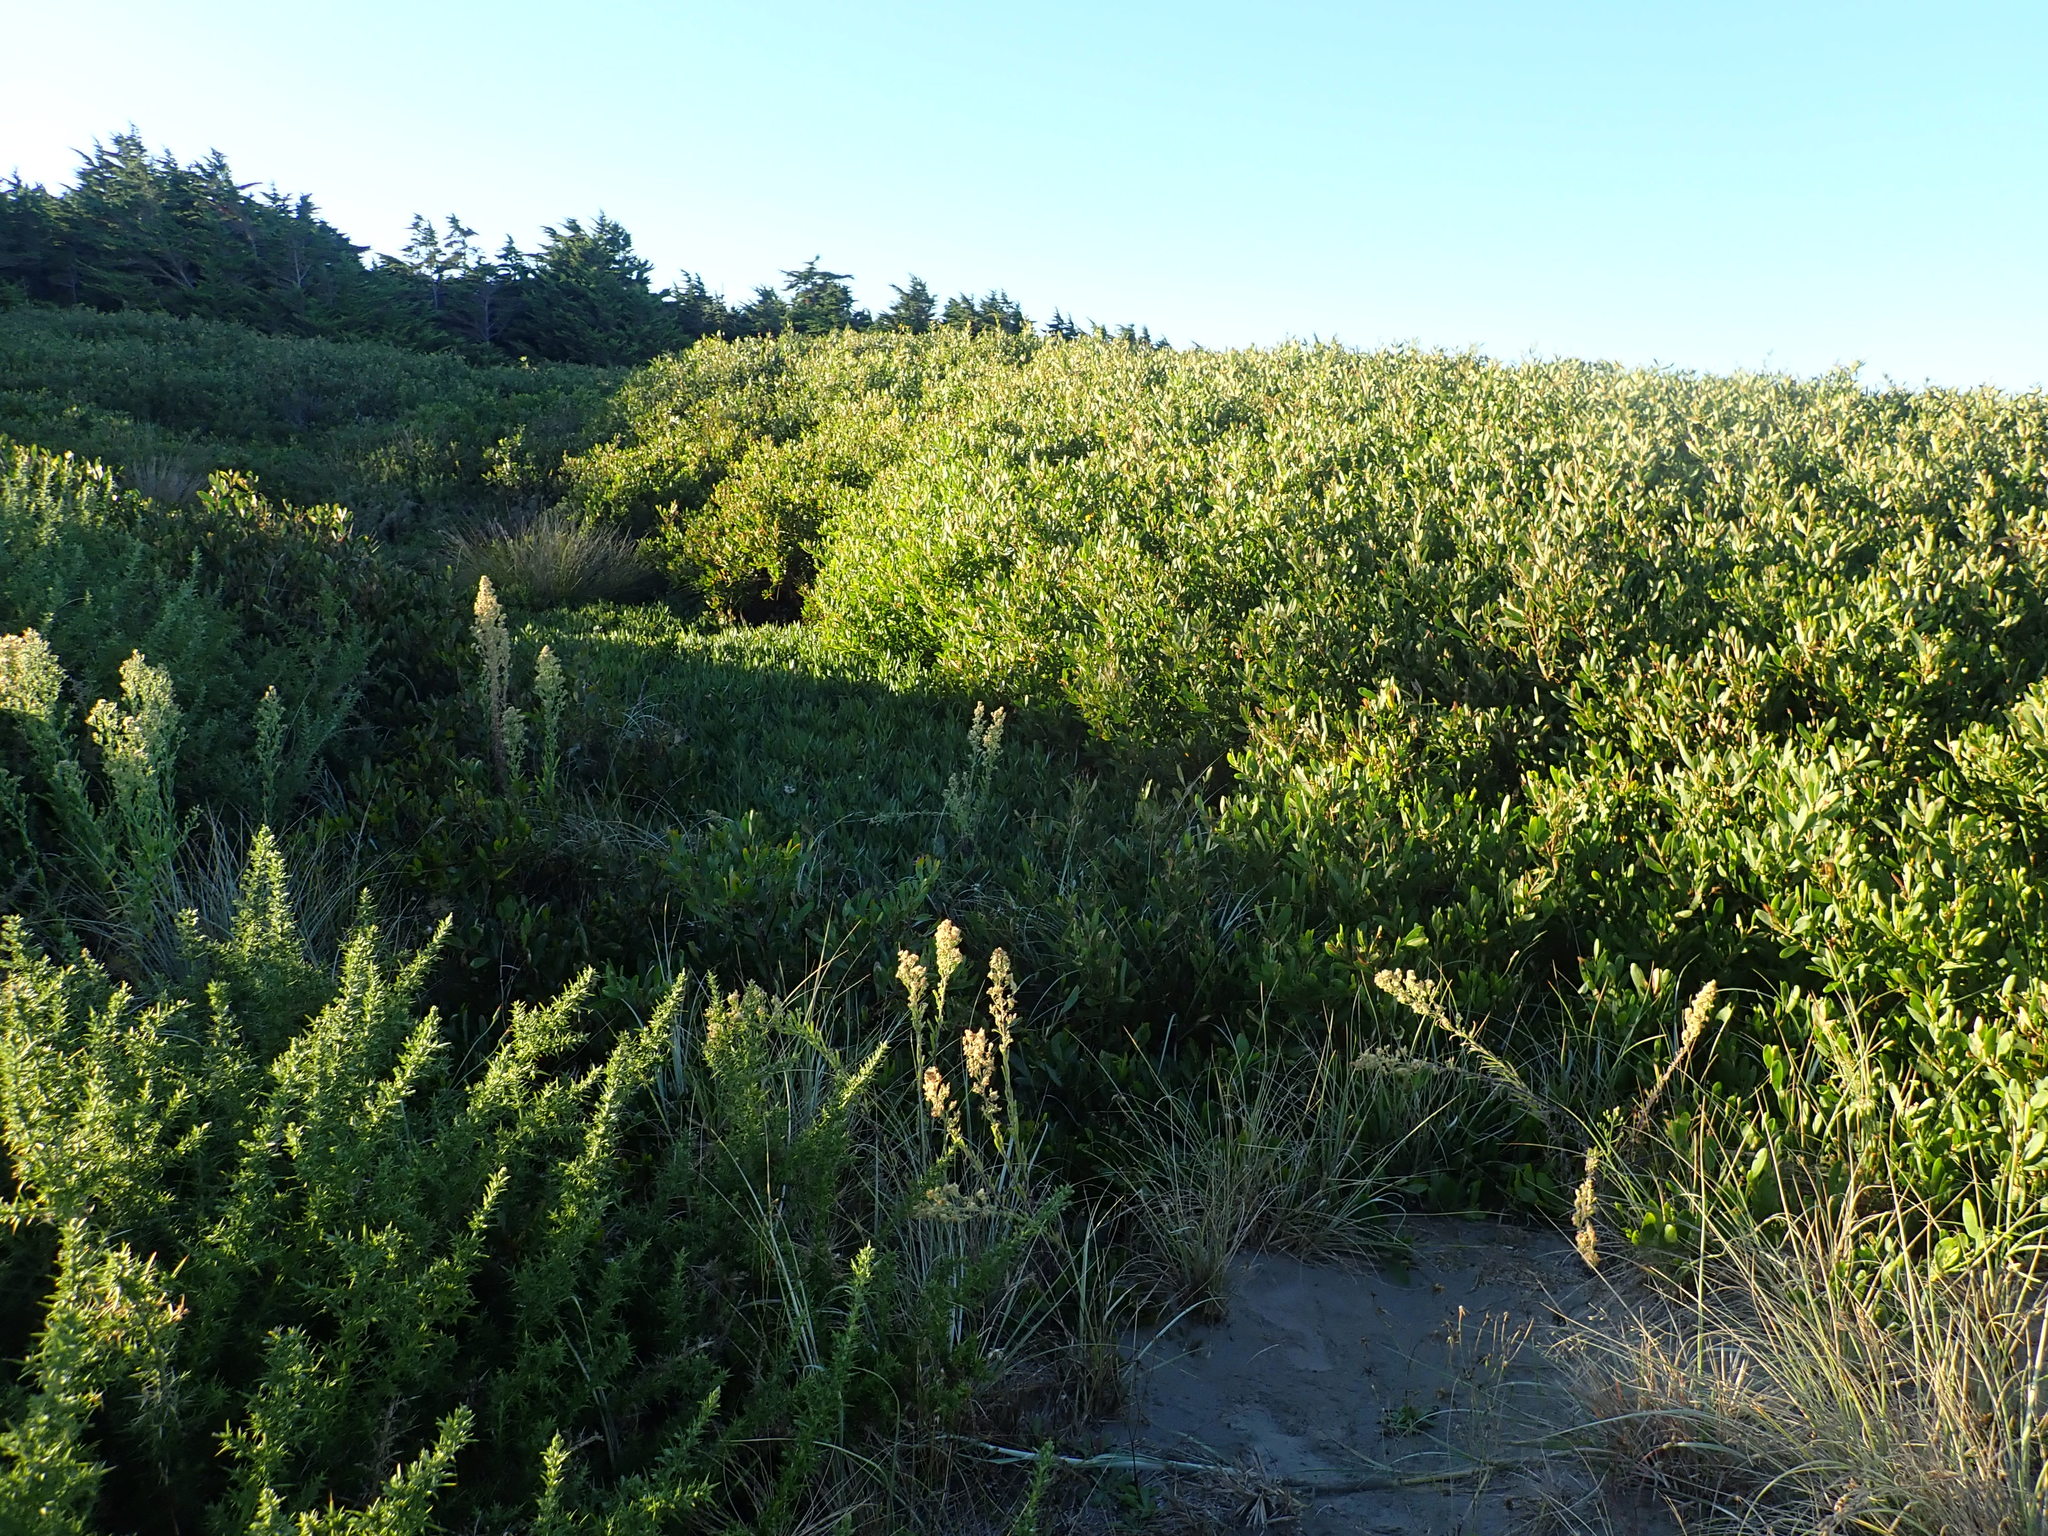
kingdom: Plantae
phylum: Tracheophyta
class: Magnoliopsida
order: Caryophyllales
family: Aizoaceae
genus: Carpobrotus
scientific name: Carpobrotus edulis
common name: Hottentot-fig
